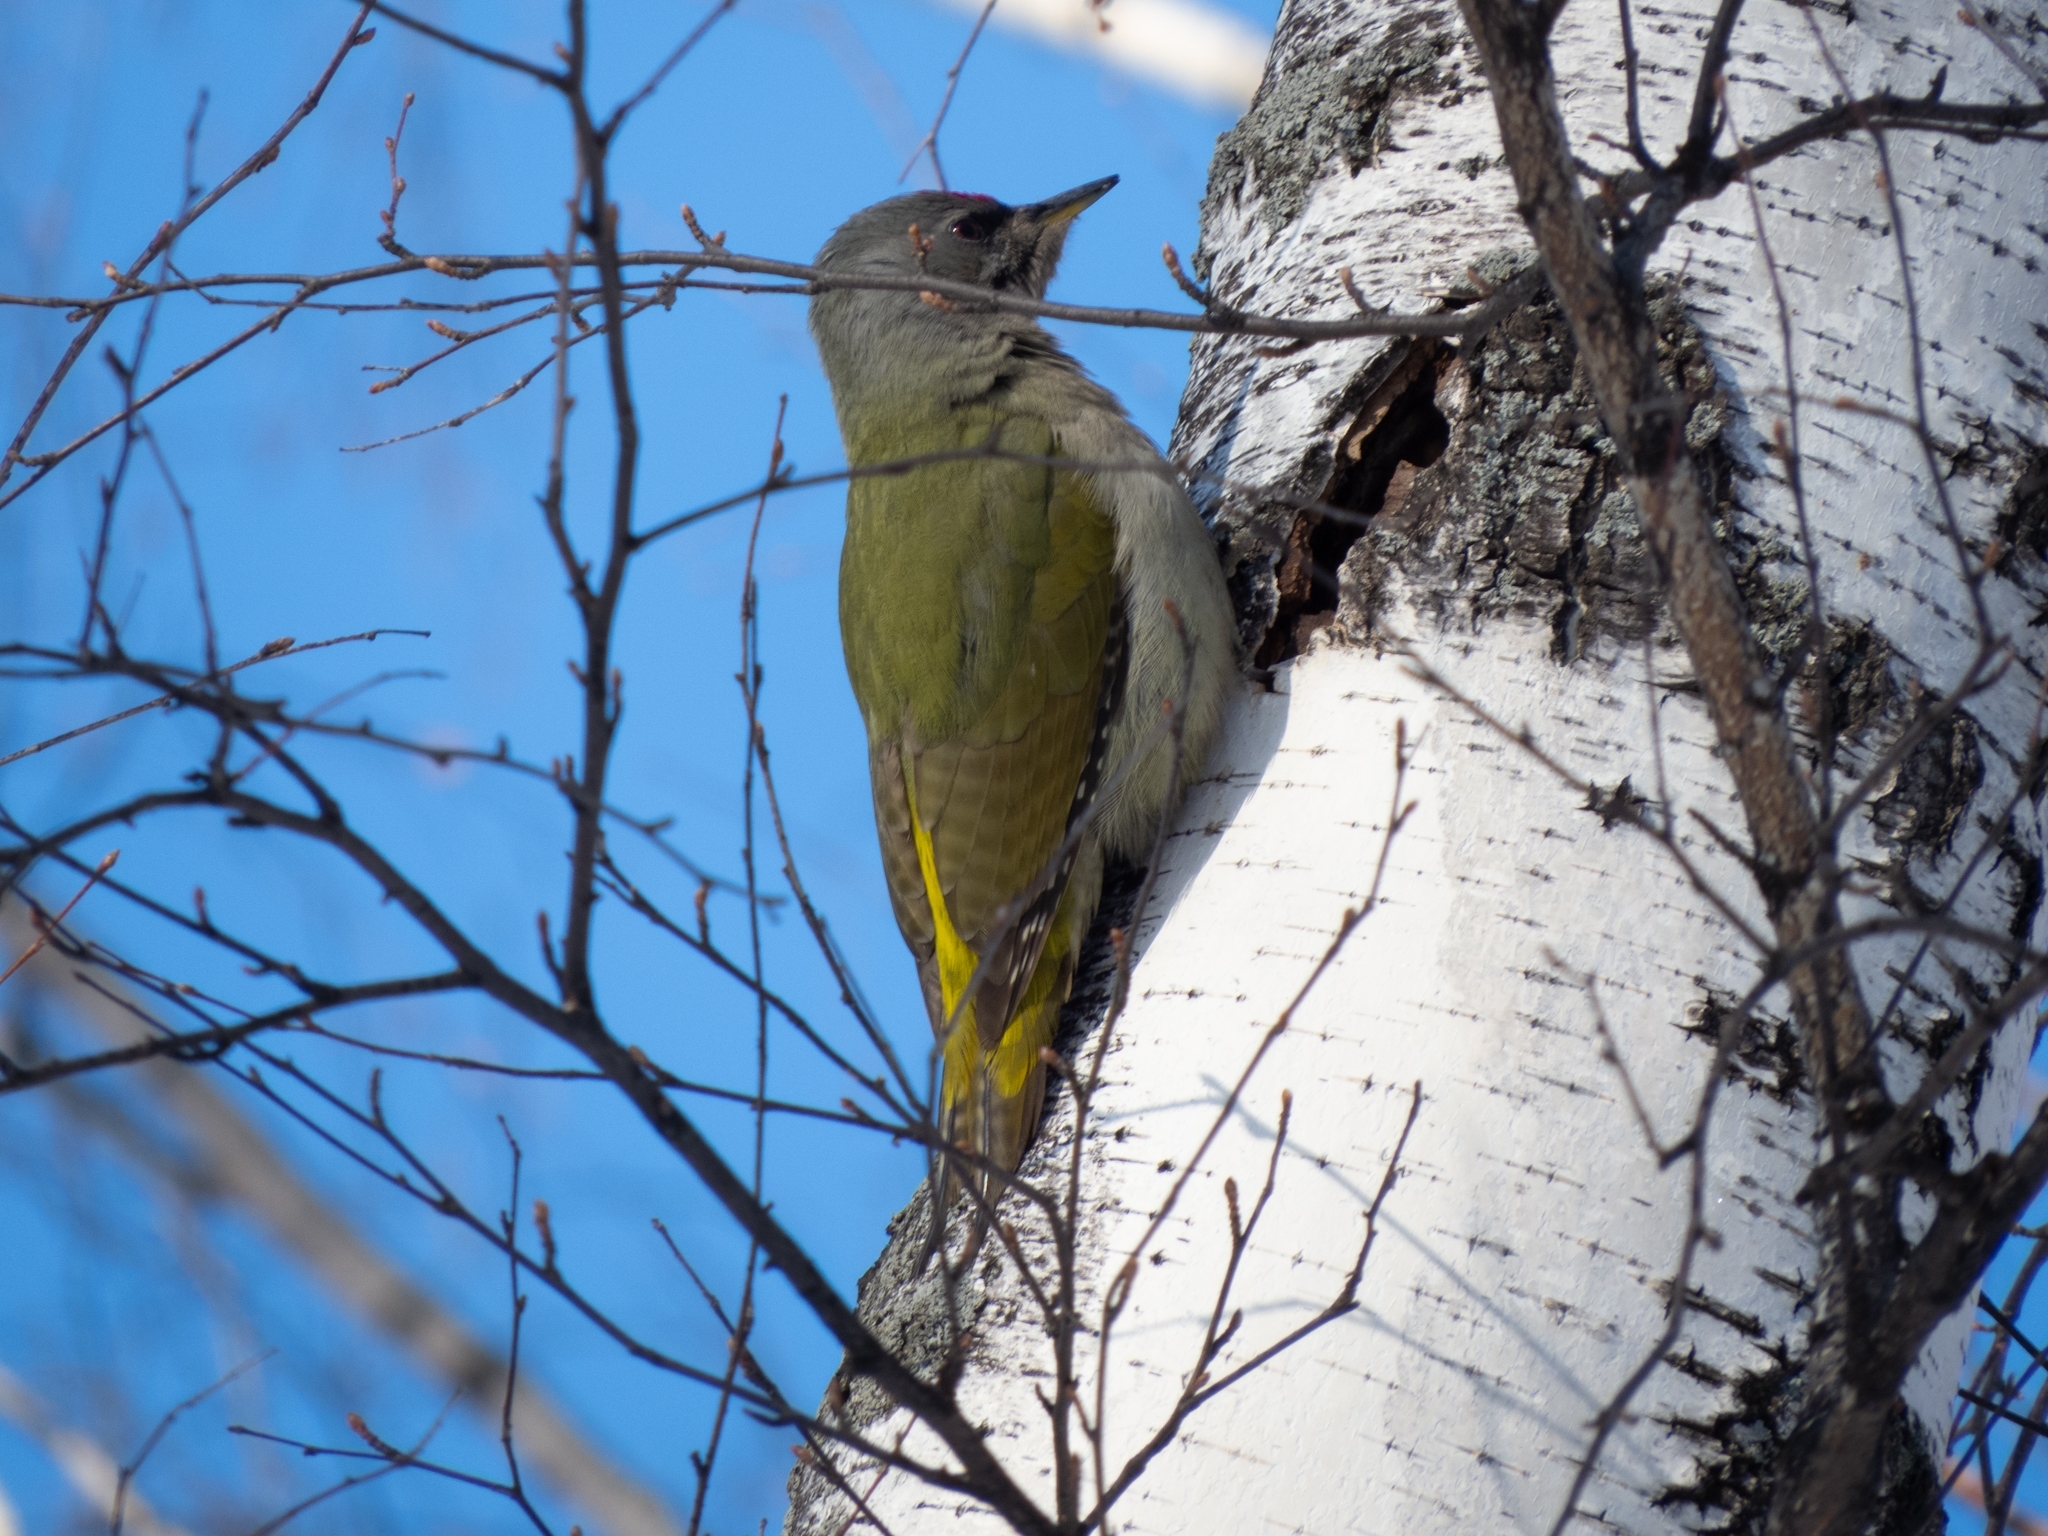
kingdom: Animalia
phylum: Chordata
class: Aves
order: Piciformes
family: Picidae
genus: Picus
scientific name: Picus canus
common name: Grey-headed woodpecker
